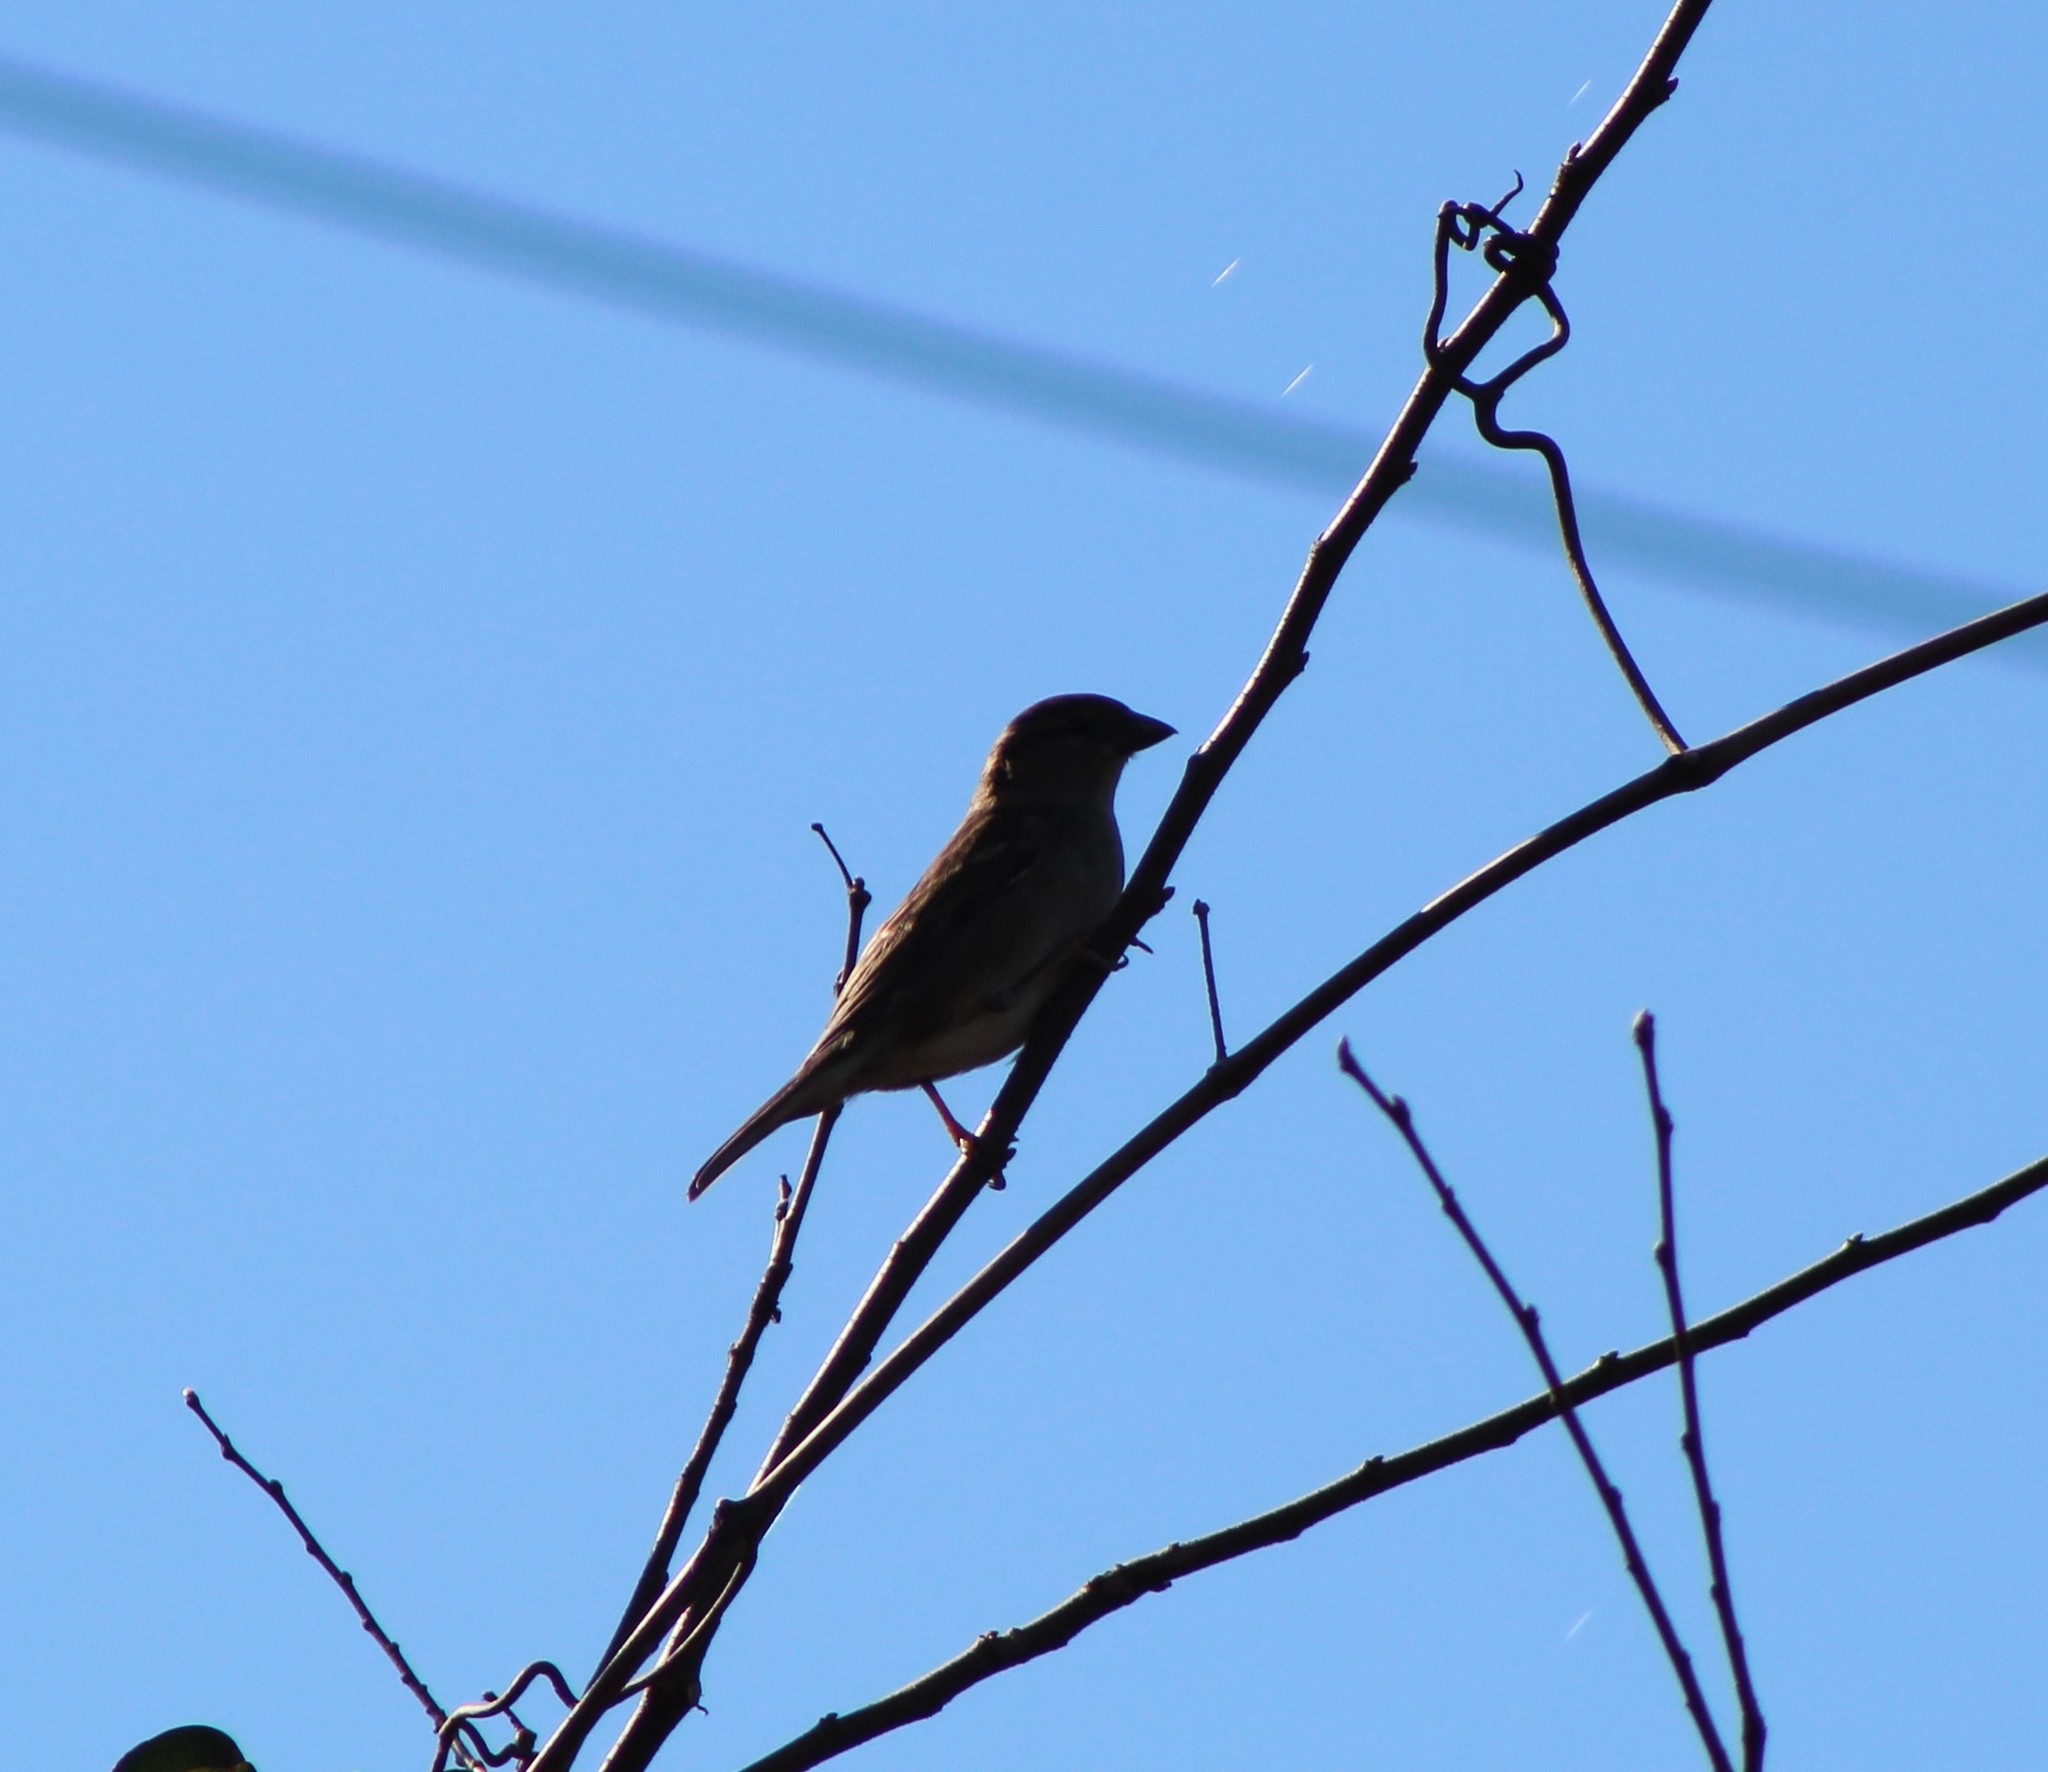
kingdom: Animalia
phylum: Chordata
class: Aves
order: Passeriformes
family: Passeridae
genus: Passer
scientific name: Passer domesticus
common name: House sparrow
